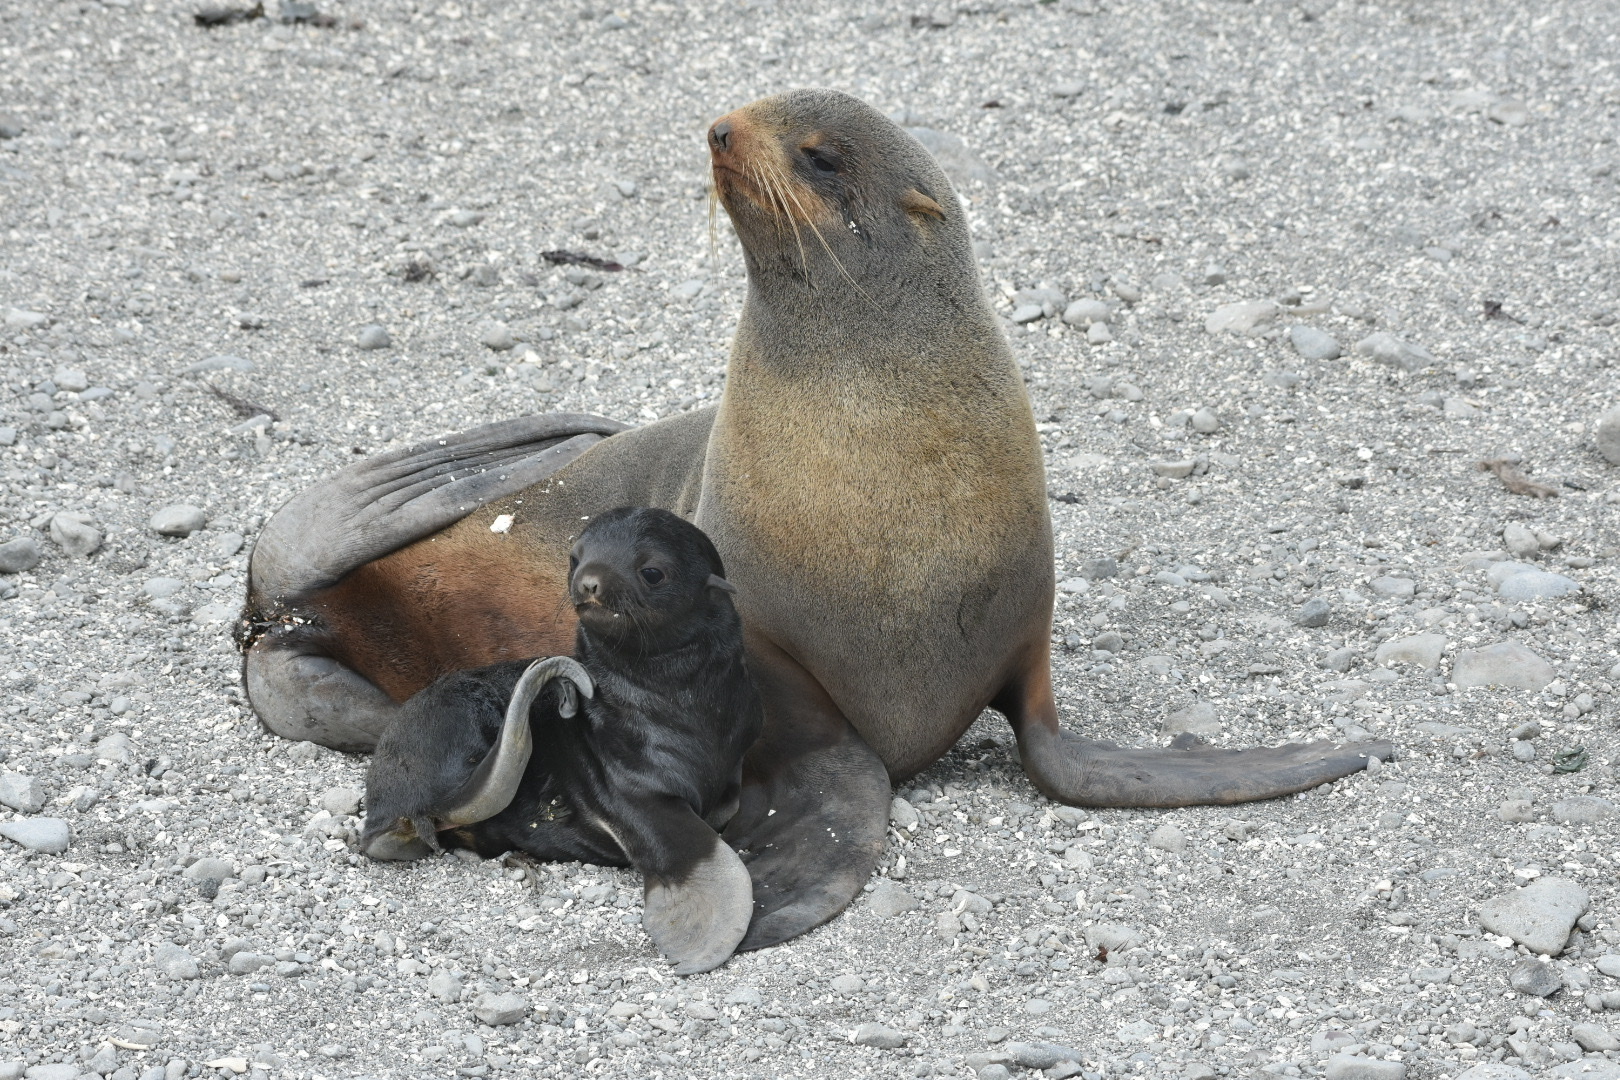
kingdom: Animalia
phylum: Chordata
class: Mammalia
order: Carnivora
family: Otariidae
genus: Callorhinus
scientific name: Callorhinus ursinus
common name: Northern fur seal
